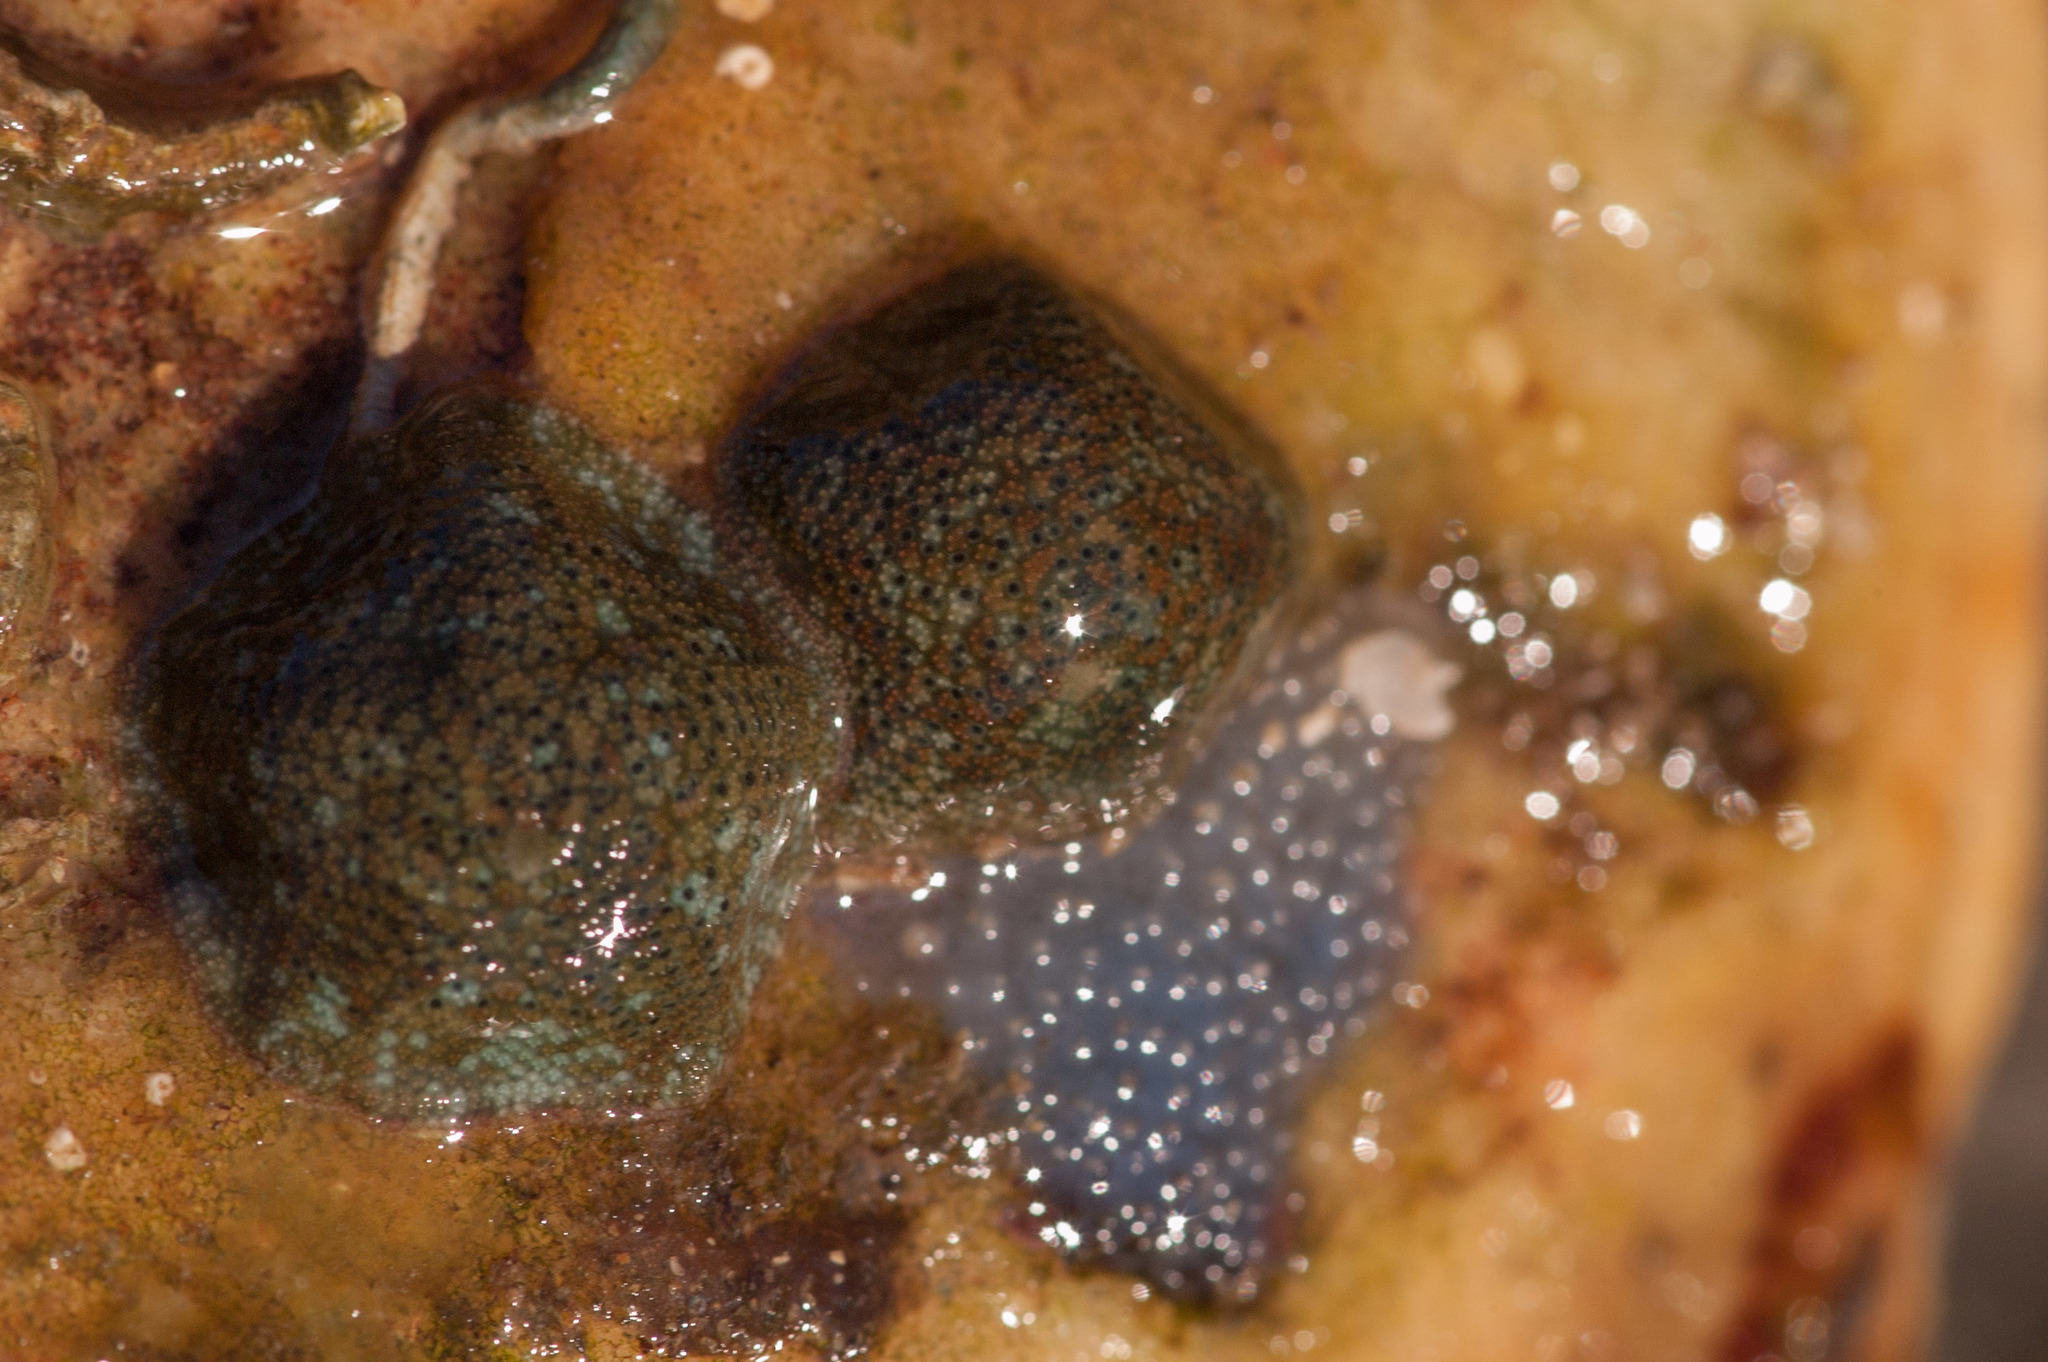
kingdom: Animalia
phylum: Echinodermata
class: Asteroidea
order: Valvatida
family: Asterinidae
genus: Parvulastra
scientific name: Parvulastra exigua
